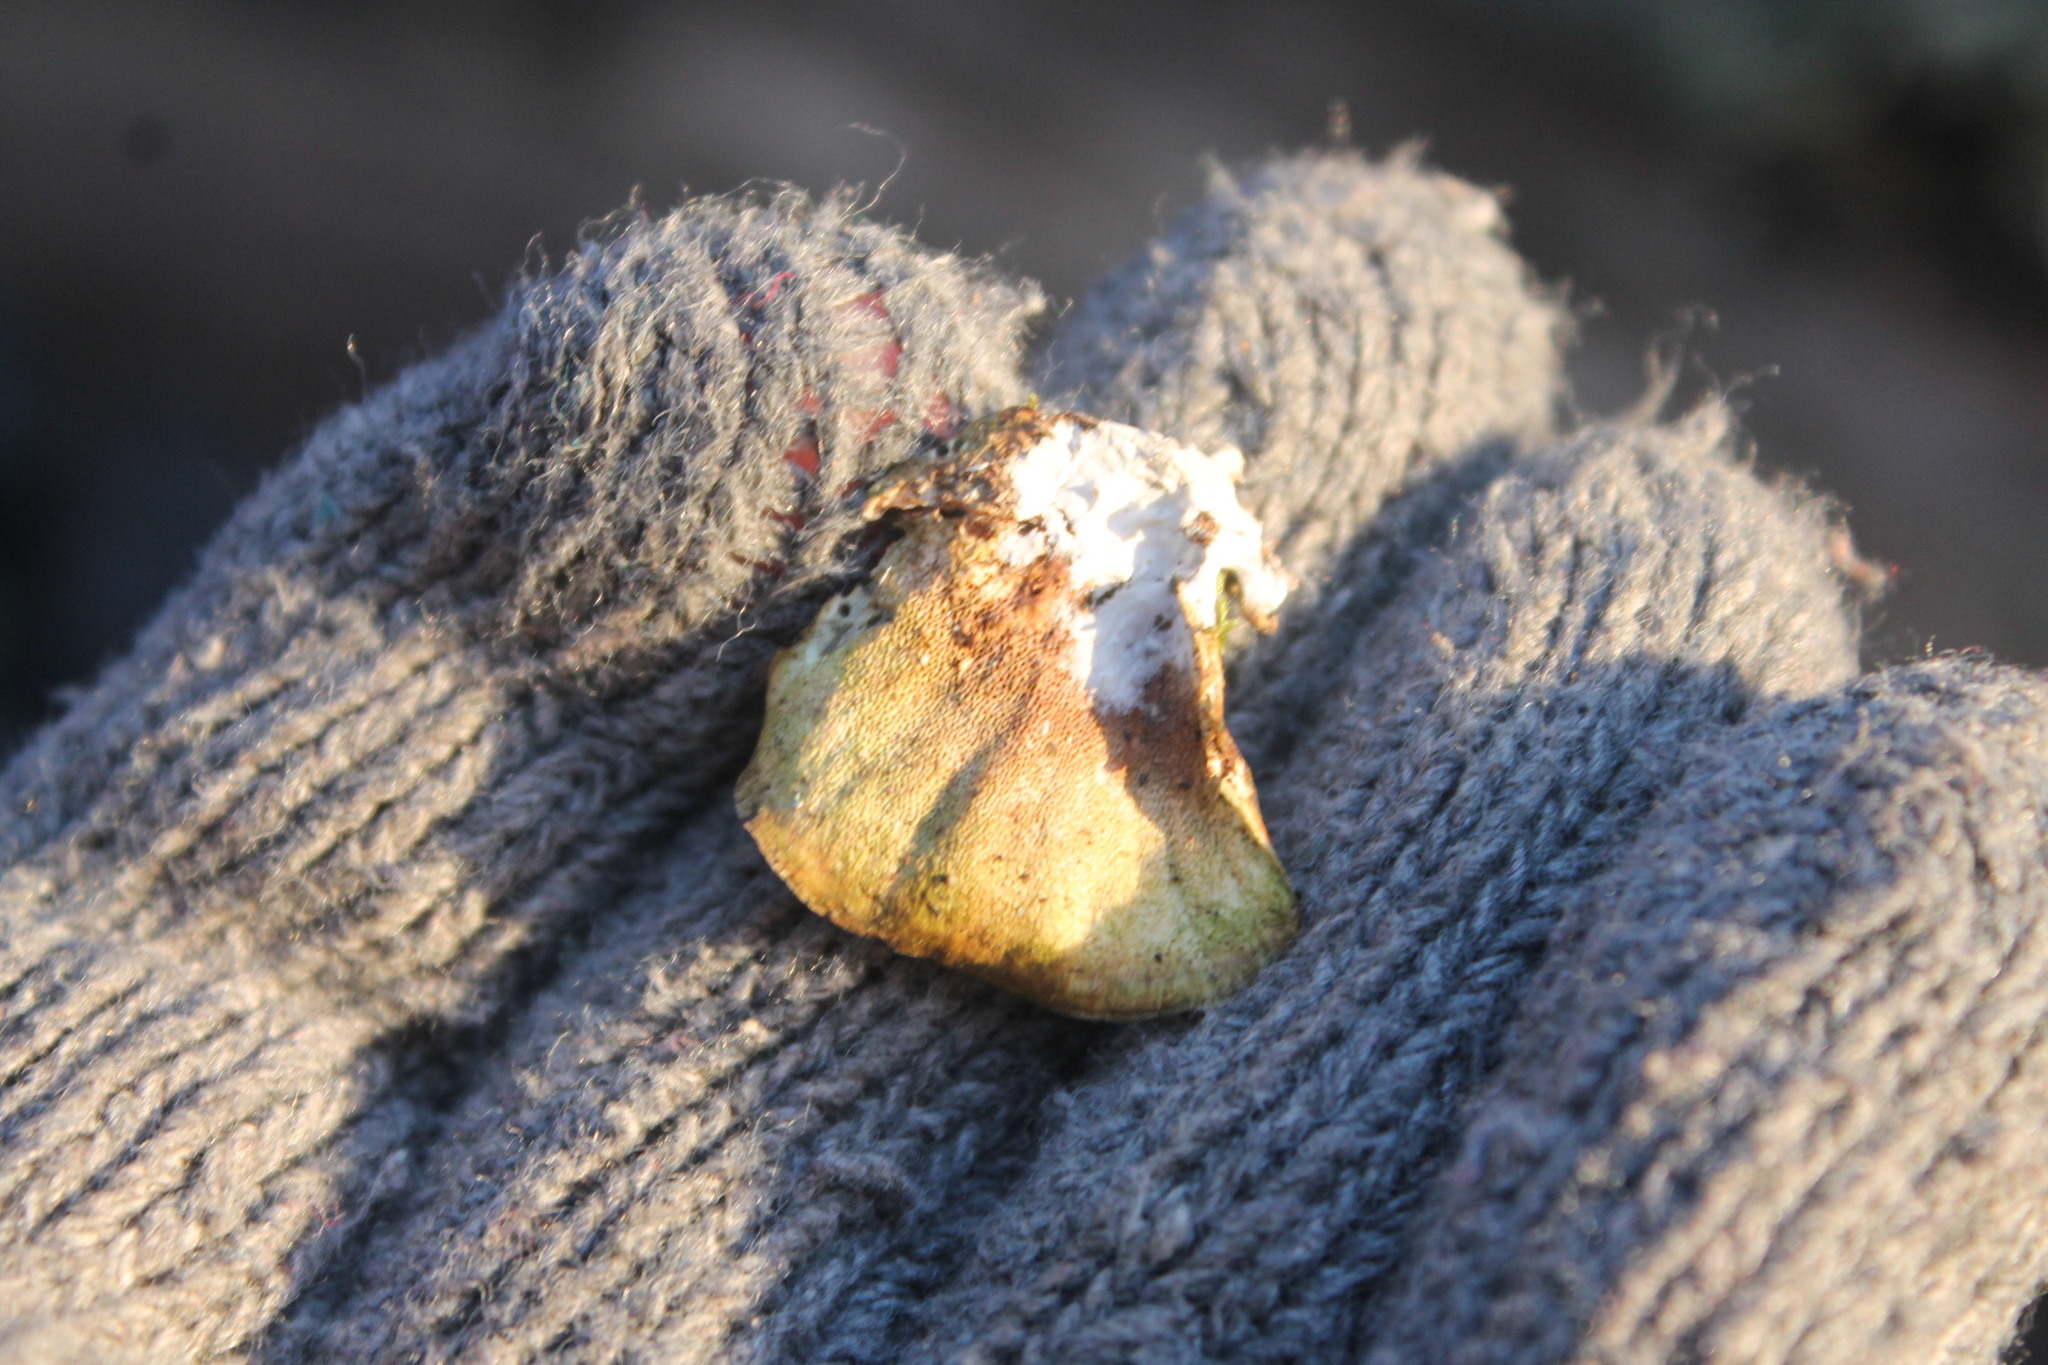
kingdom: Fungi
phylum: Basidiomycota
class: Agaricomycetes
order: Polyporales
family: Polyporaceae
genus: Trametes
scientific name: Trametes versicolor
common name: Turkeytail
